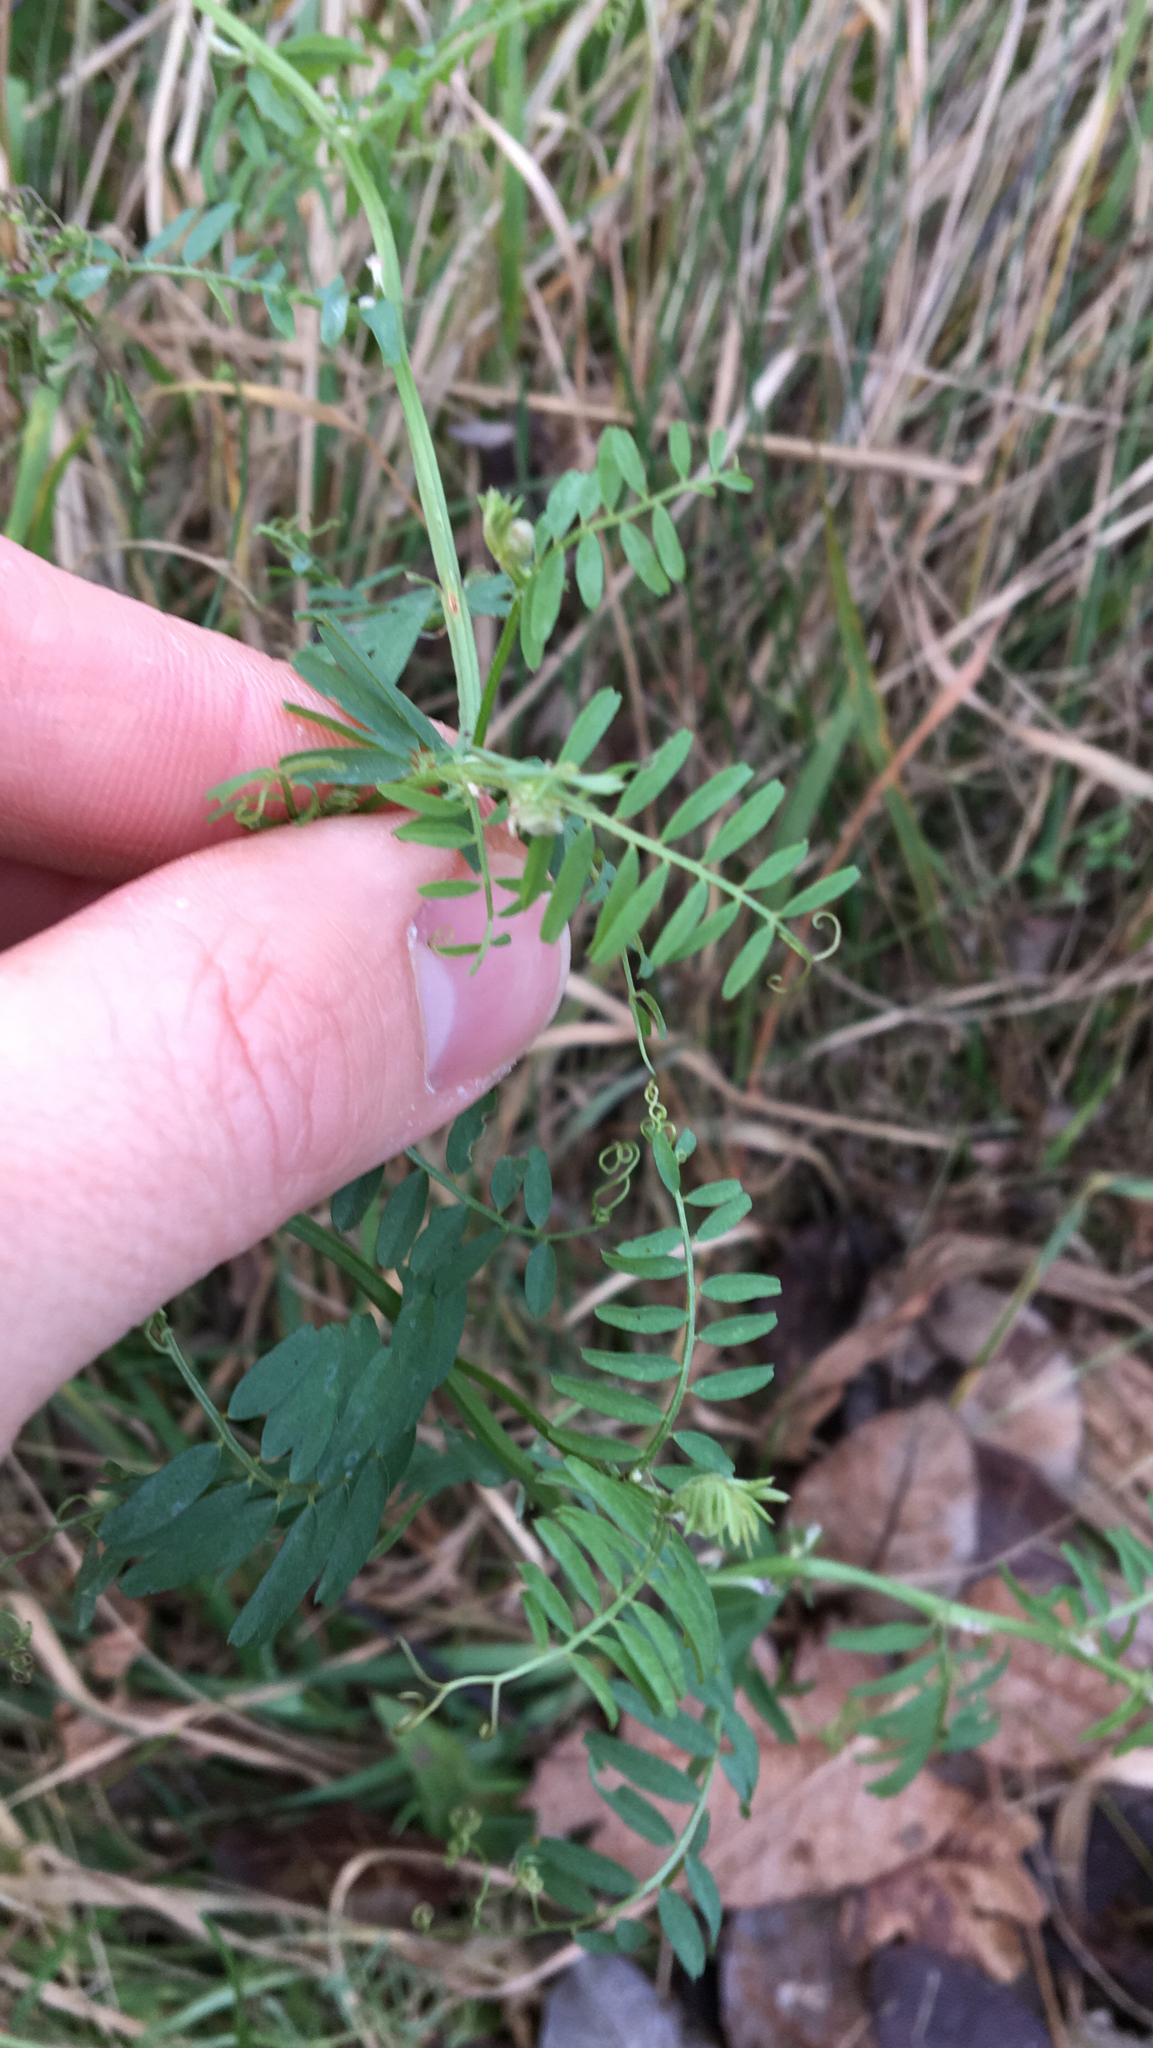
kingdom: Plantae
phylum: Tracheophyta
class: Magnoliopsida
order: Fabales
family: Fabaceae
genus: Vicia
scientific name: Vicia hirsuta
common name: Tiny vetch
